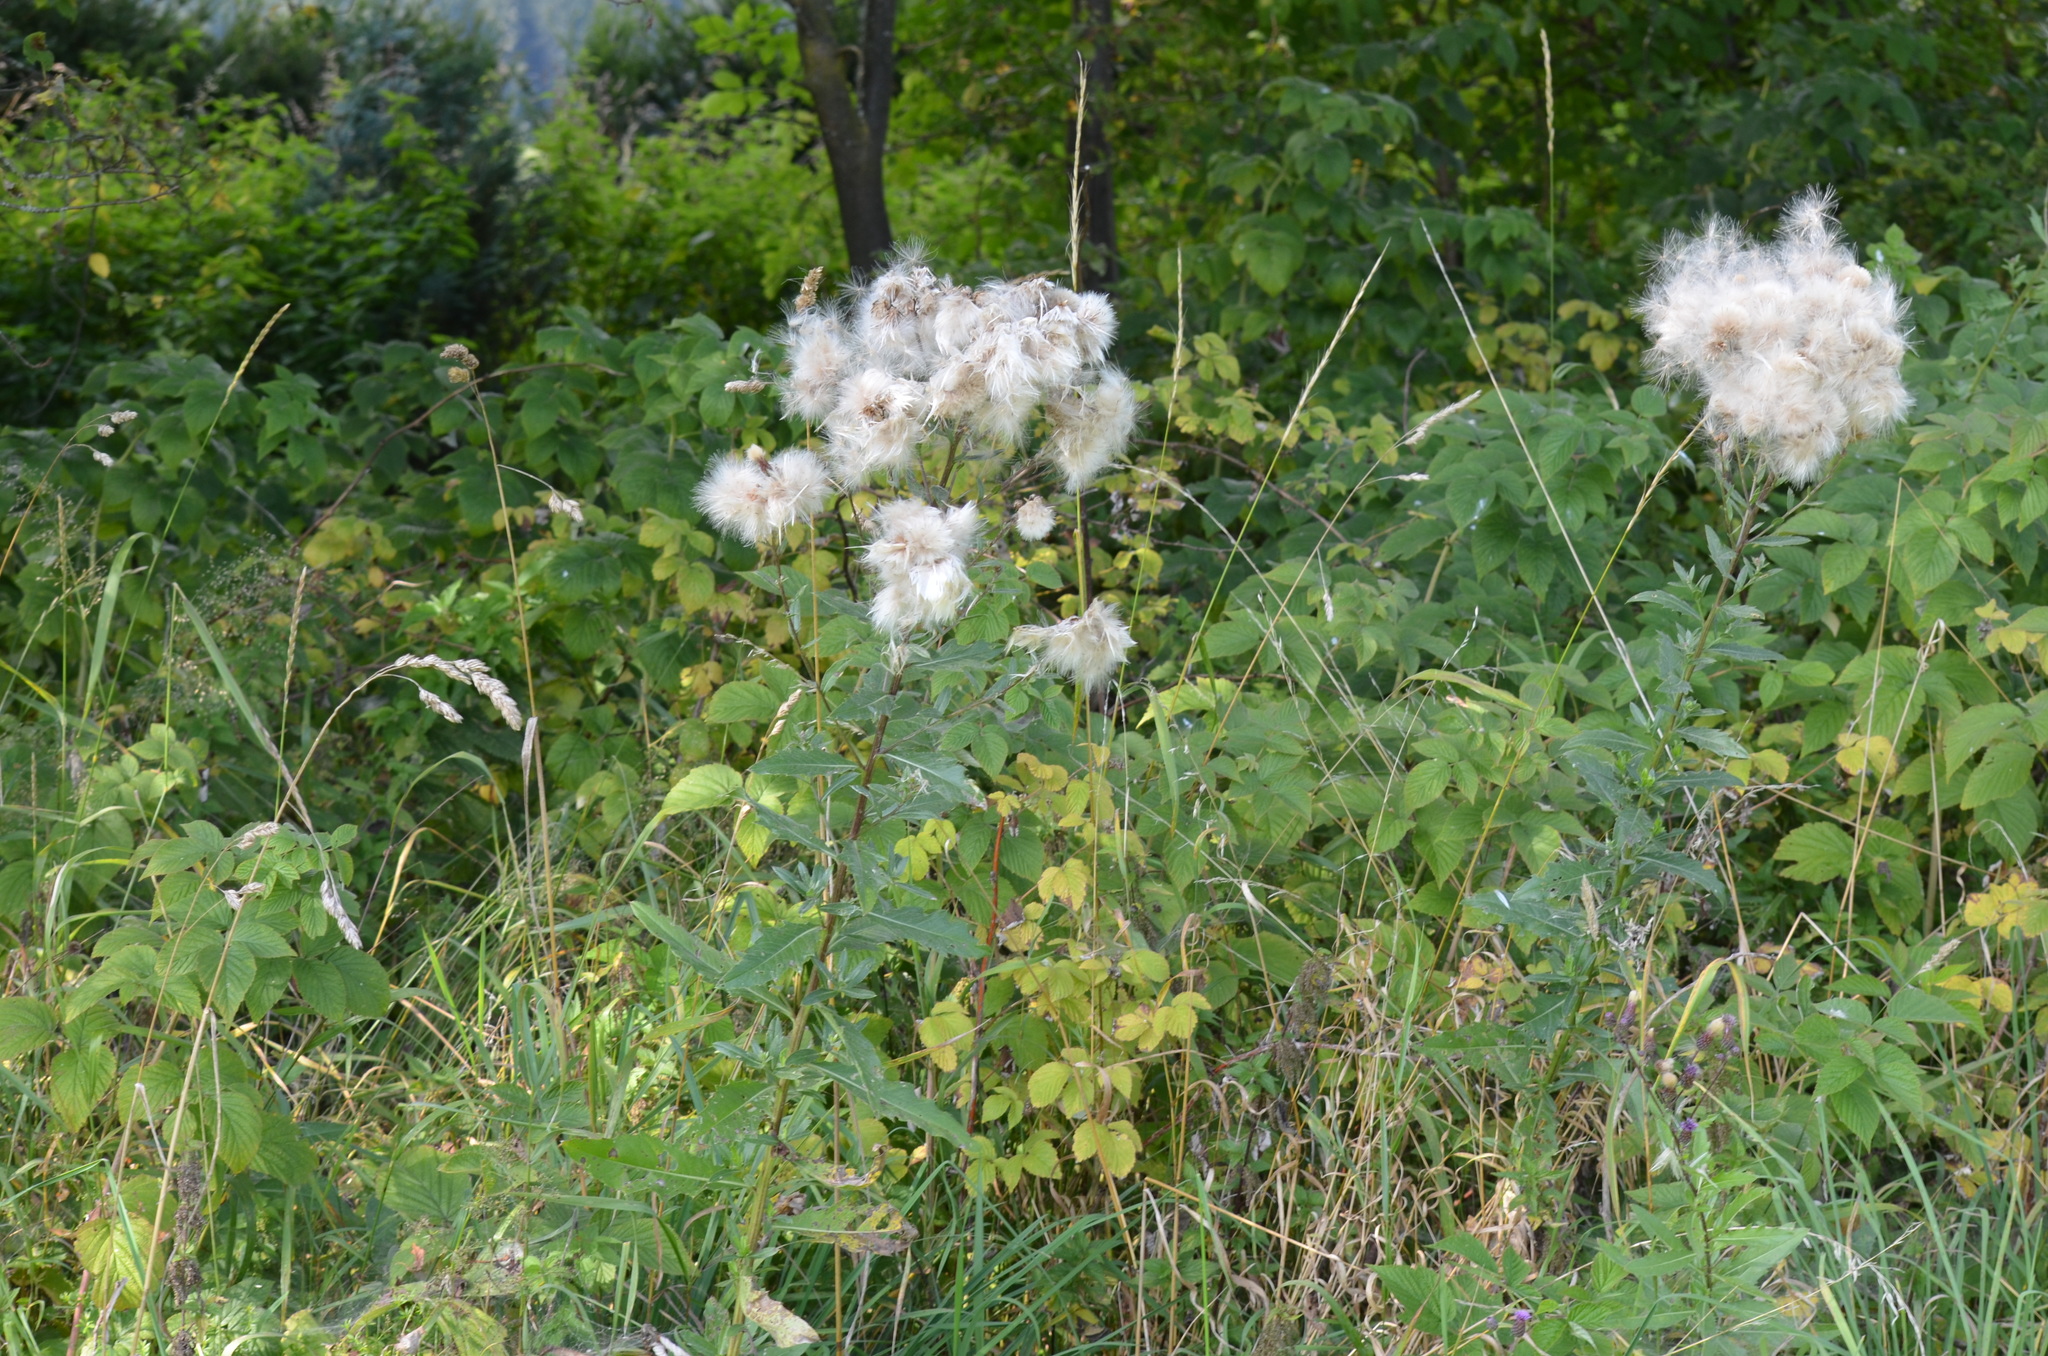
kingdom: Plantae
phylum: Tracheophyta
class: Magnoliopsida
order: Asterales
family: Asteraceae
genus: Cirsium
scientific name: Cirsium arvense
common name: Creeping thistle
